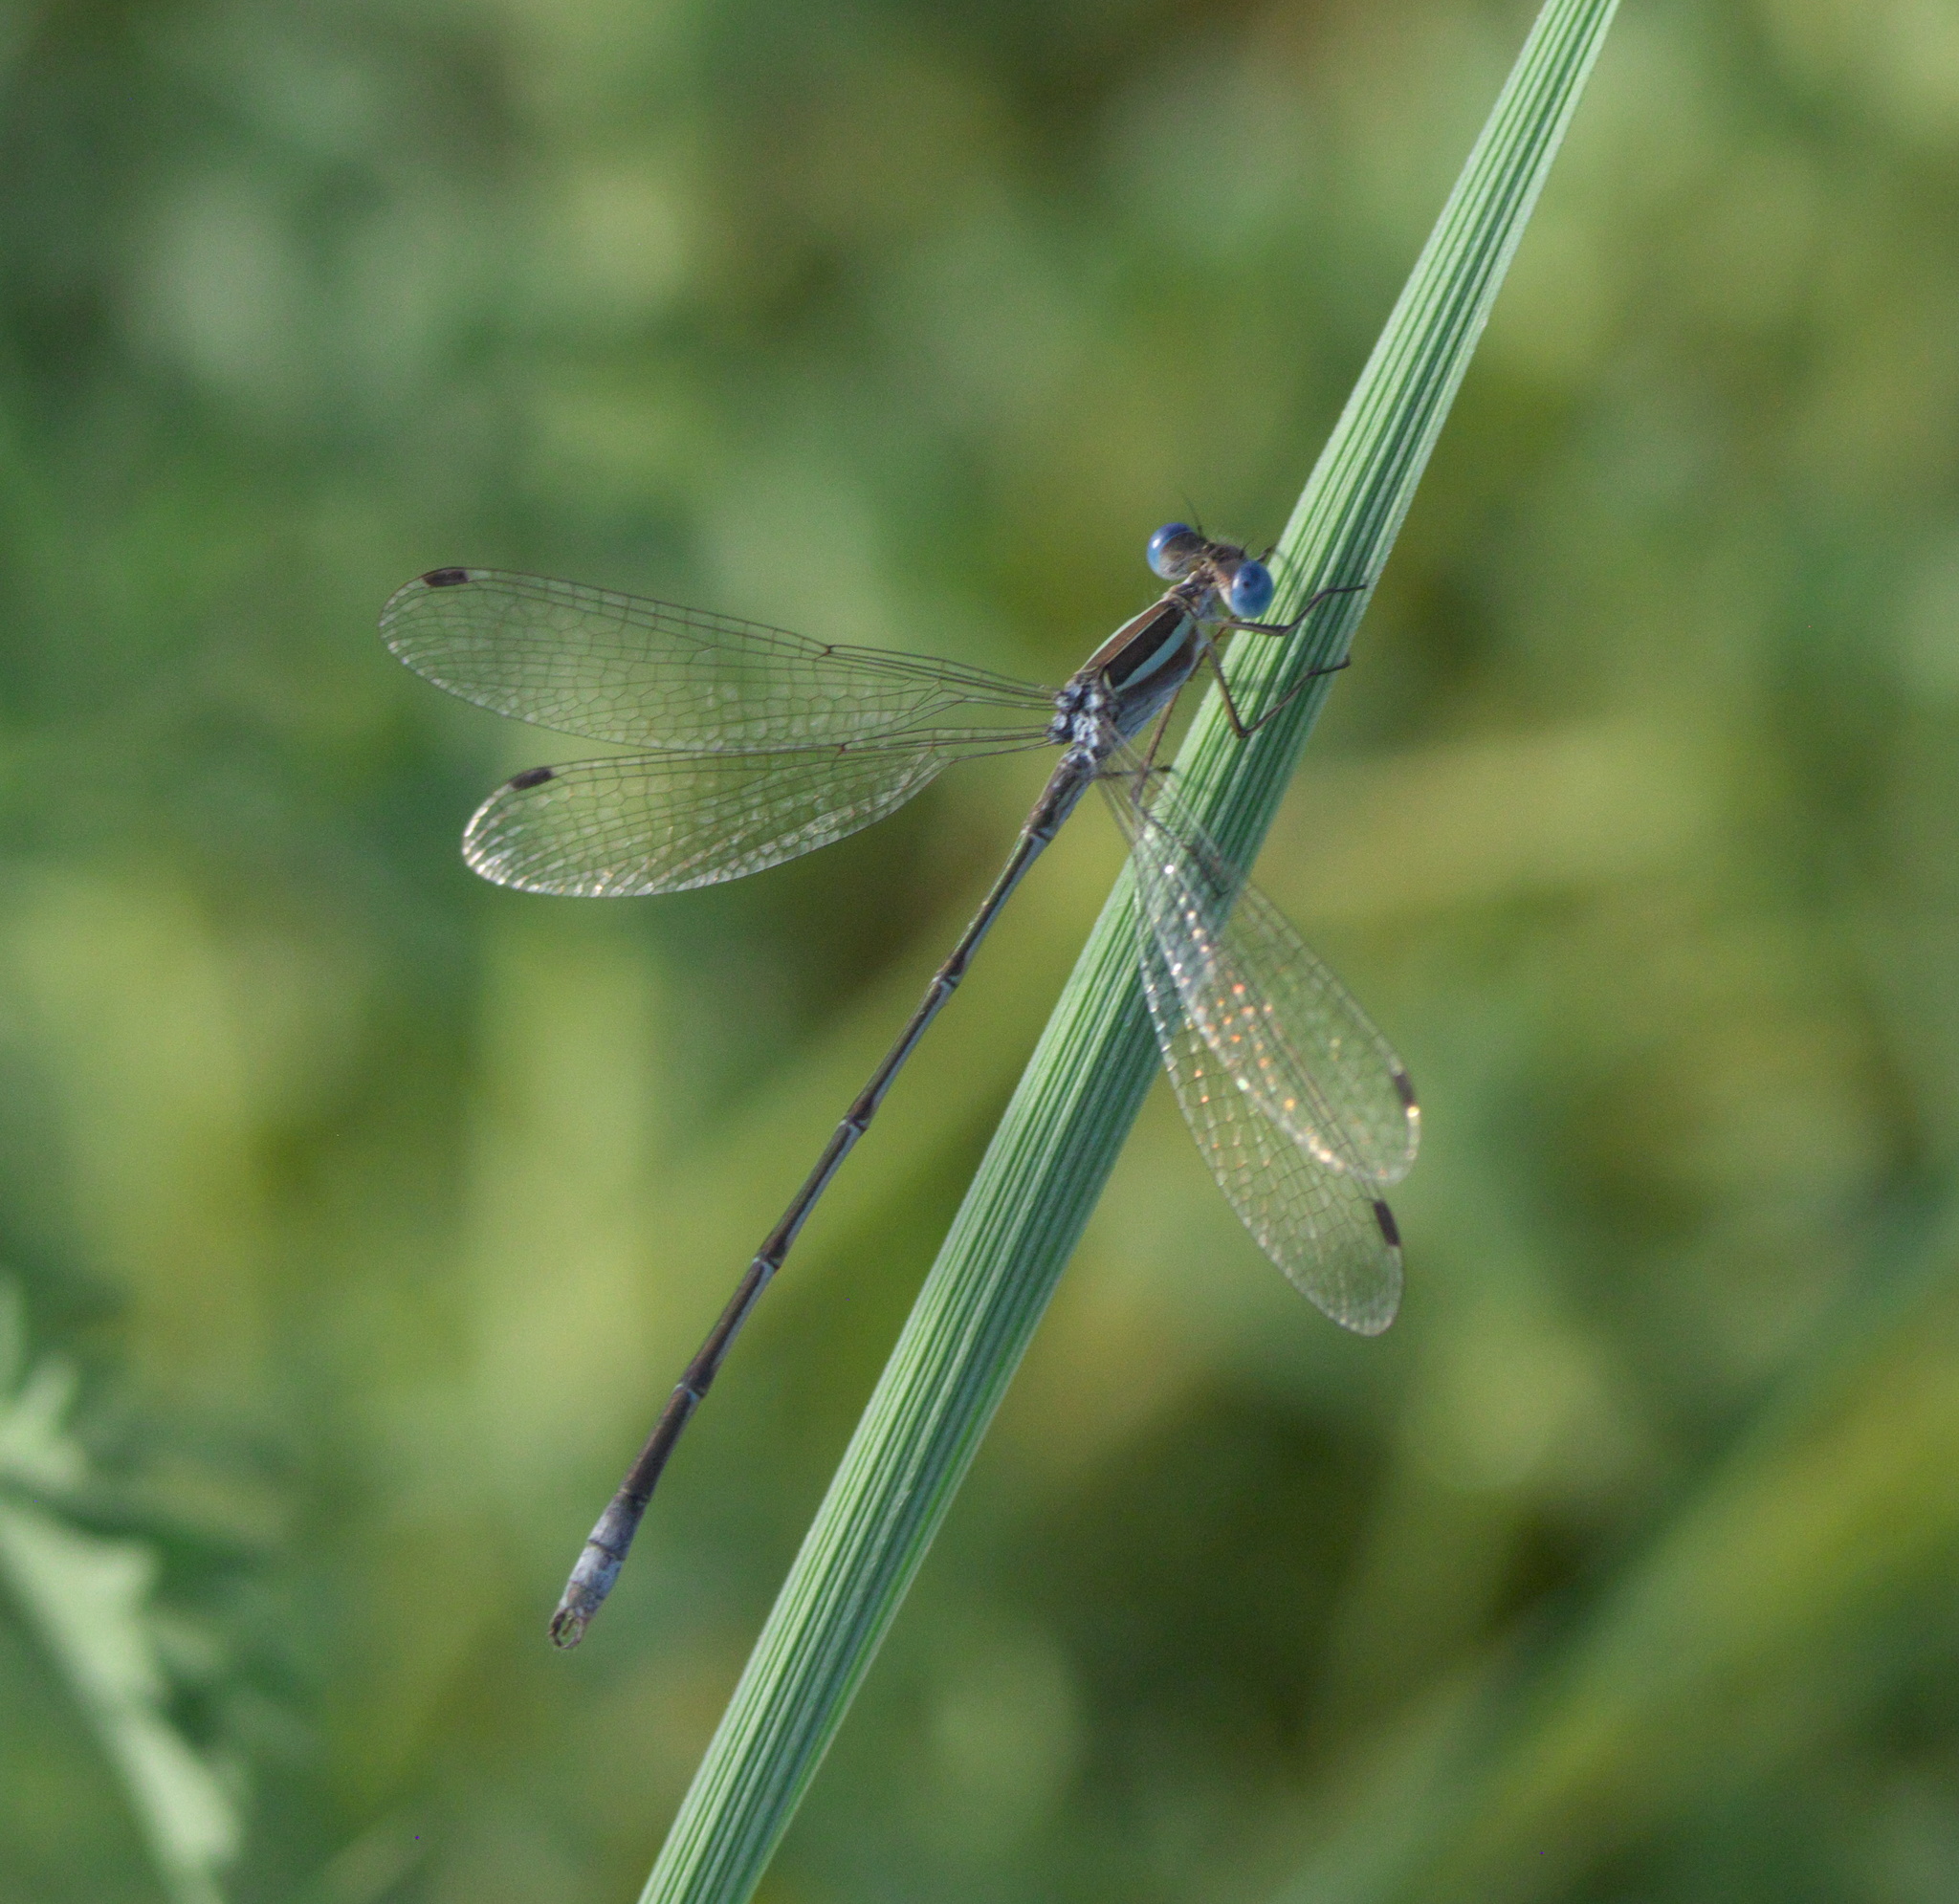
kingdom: Animalia
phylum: Arthropoda
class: Insecta
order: Odonata
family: Lestidae
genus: Lestes
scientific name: Lestes alacer
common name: Plateau spreadwing
